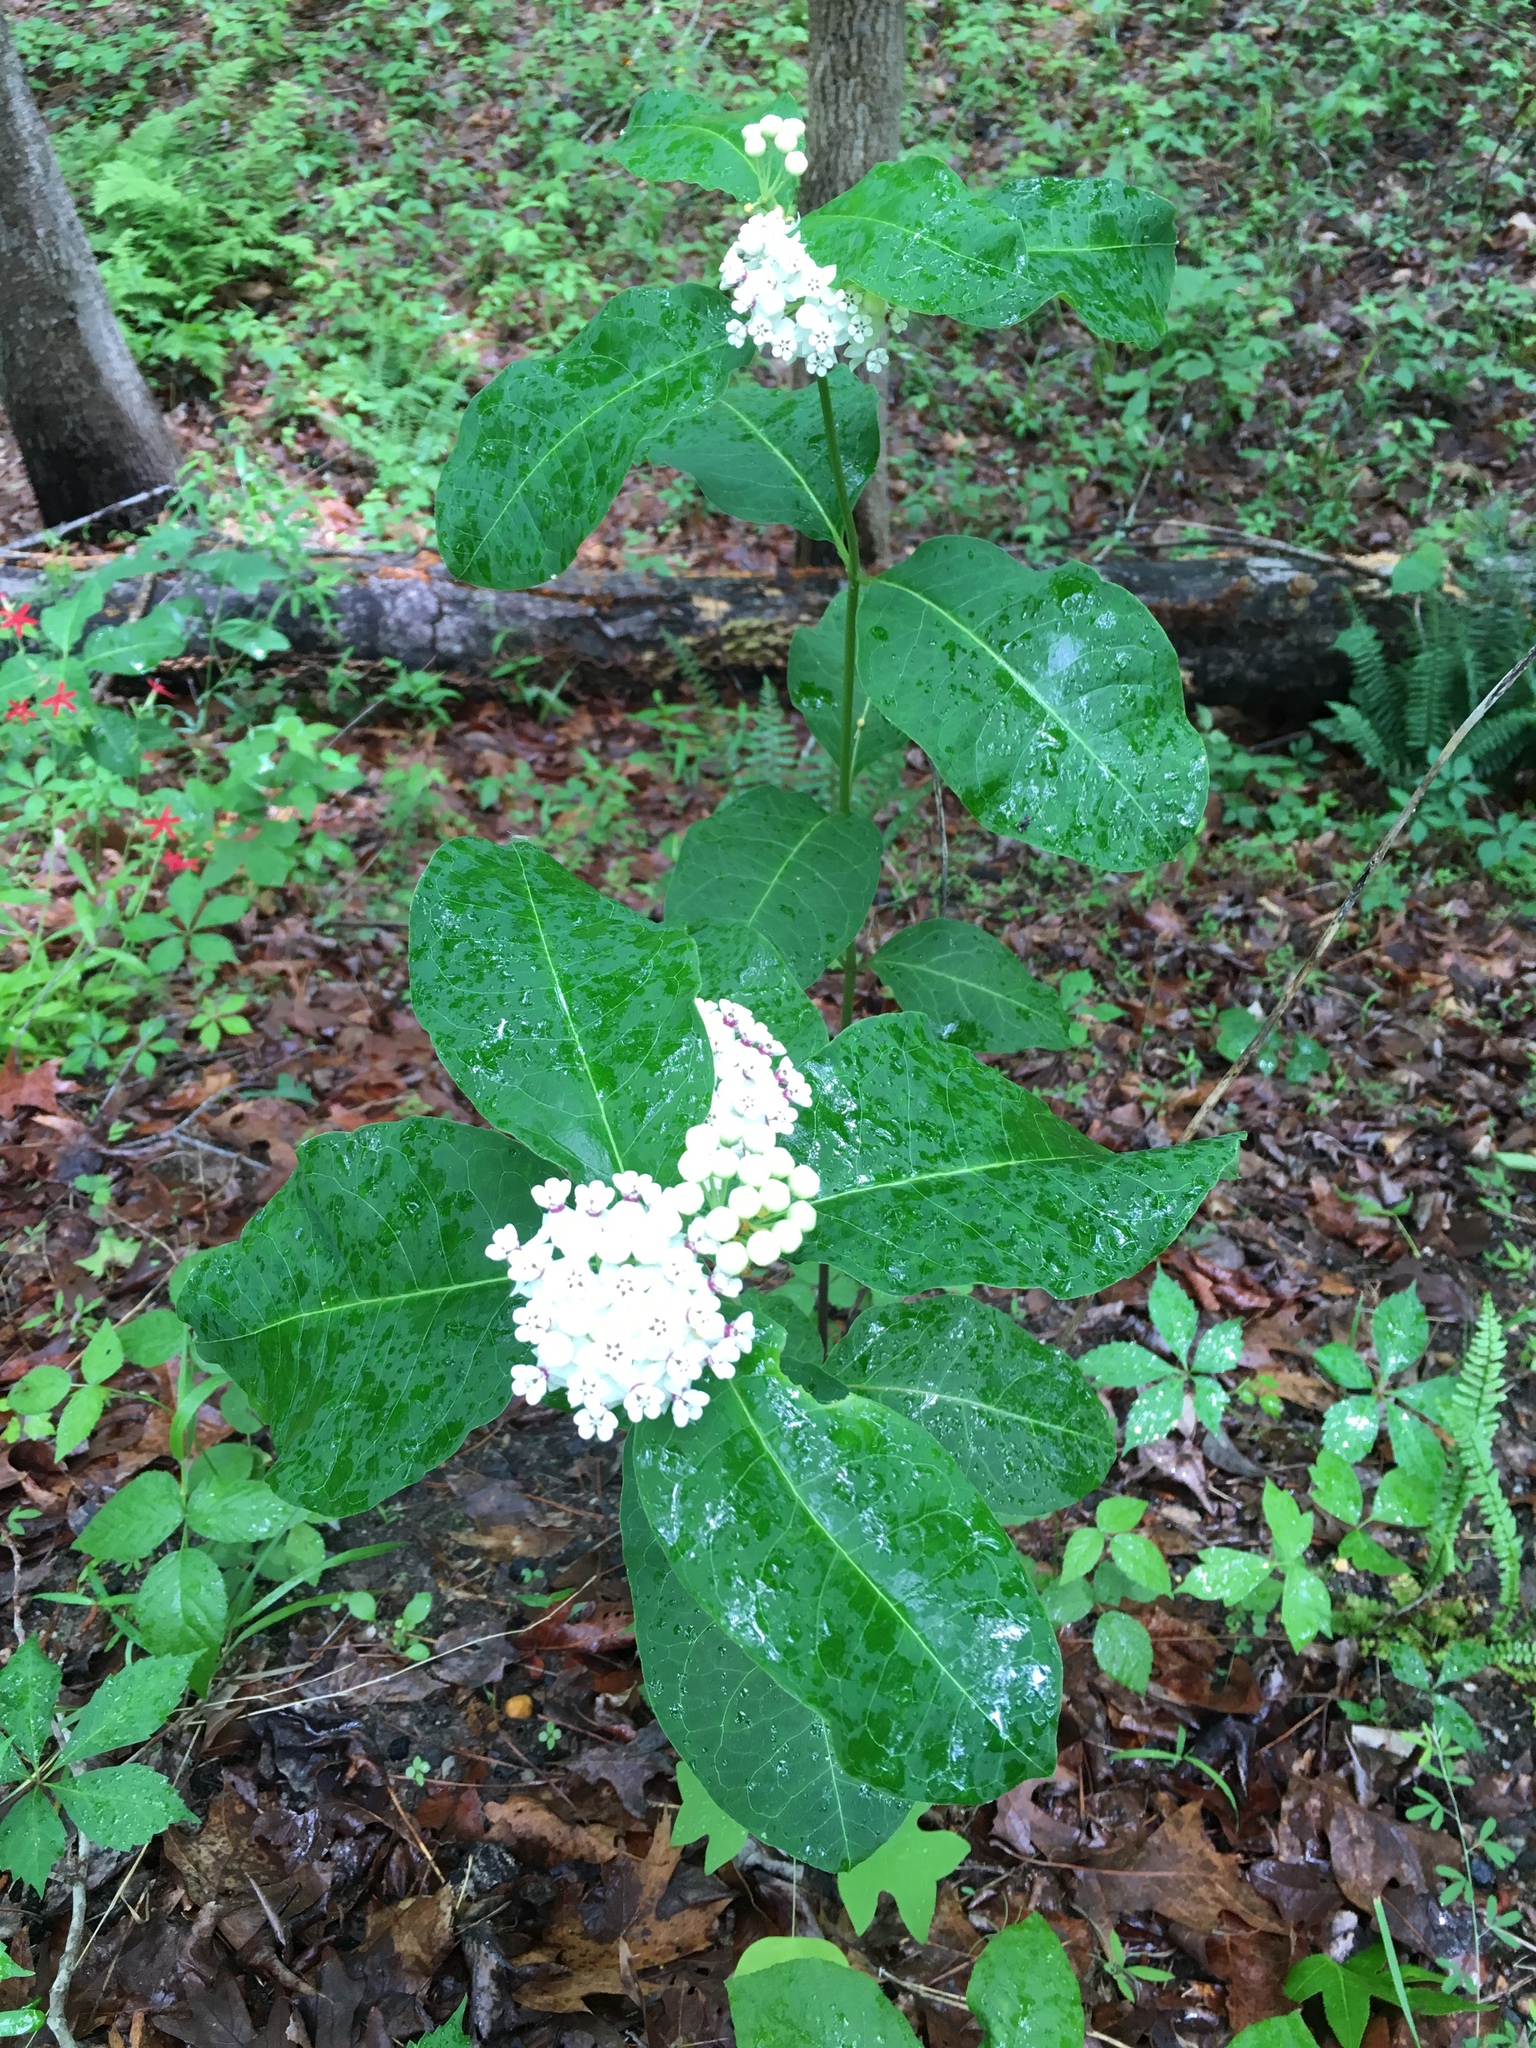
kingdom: Plantae
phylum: Tracheophyta
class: Magnoliopsida
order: Gentianales
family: Apocynaceae
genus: Asclepias
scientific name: Asclepias variegata
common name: Variegated milkweed
